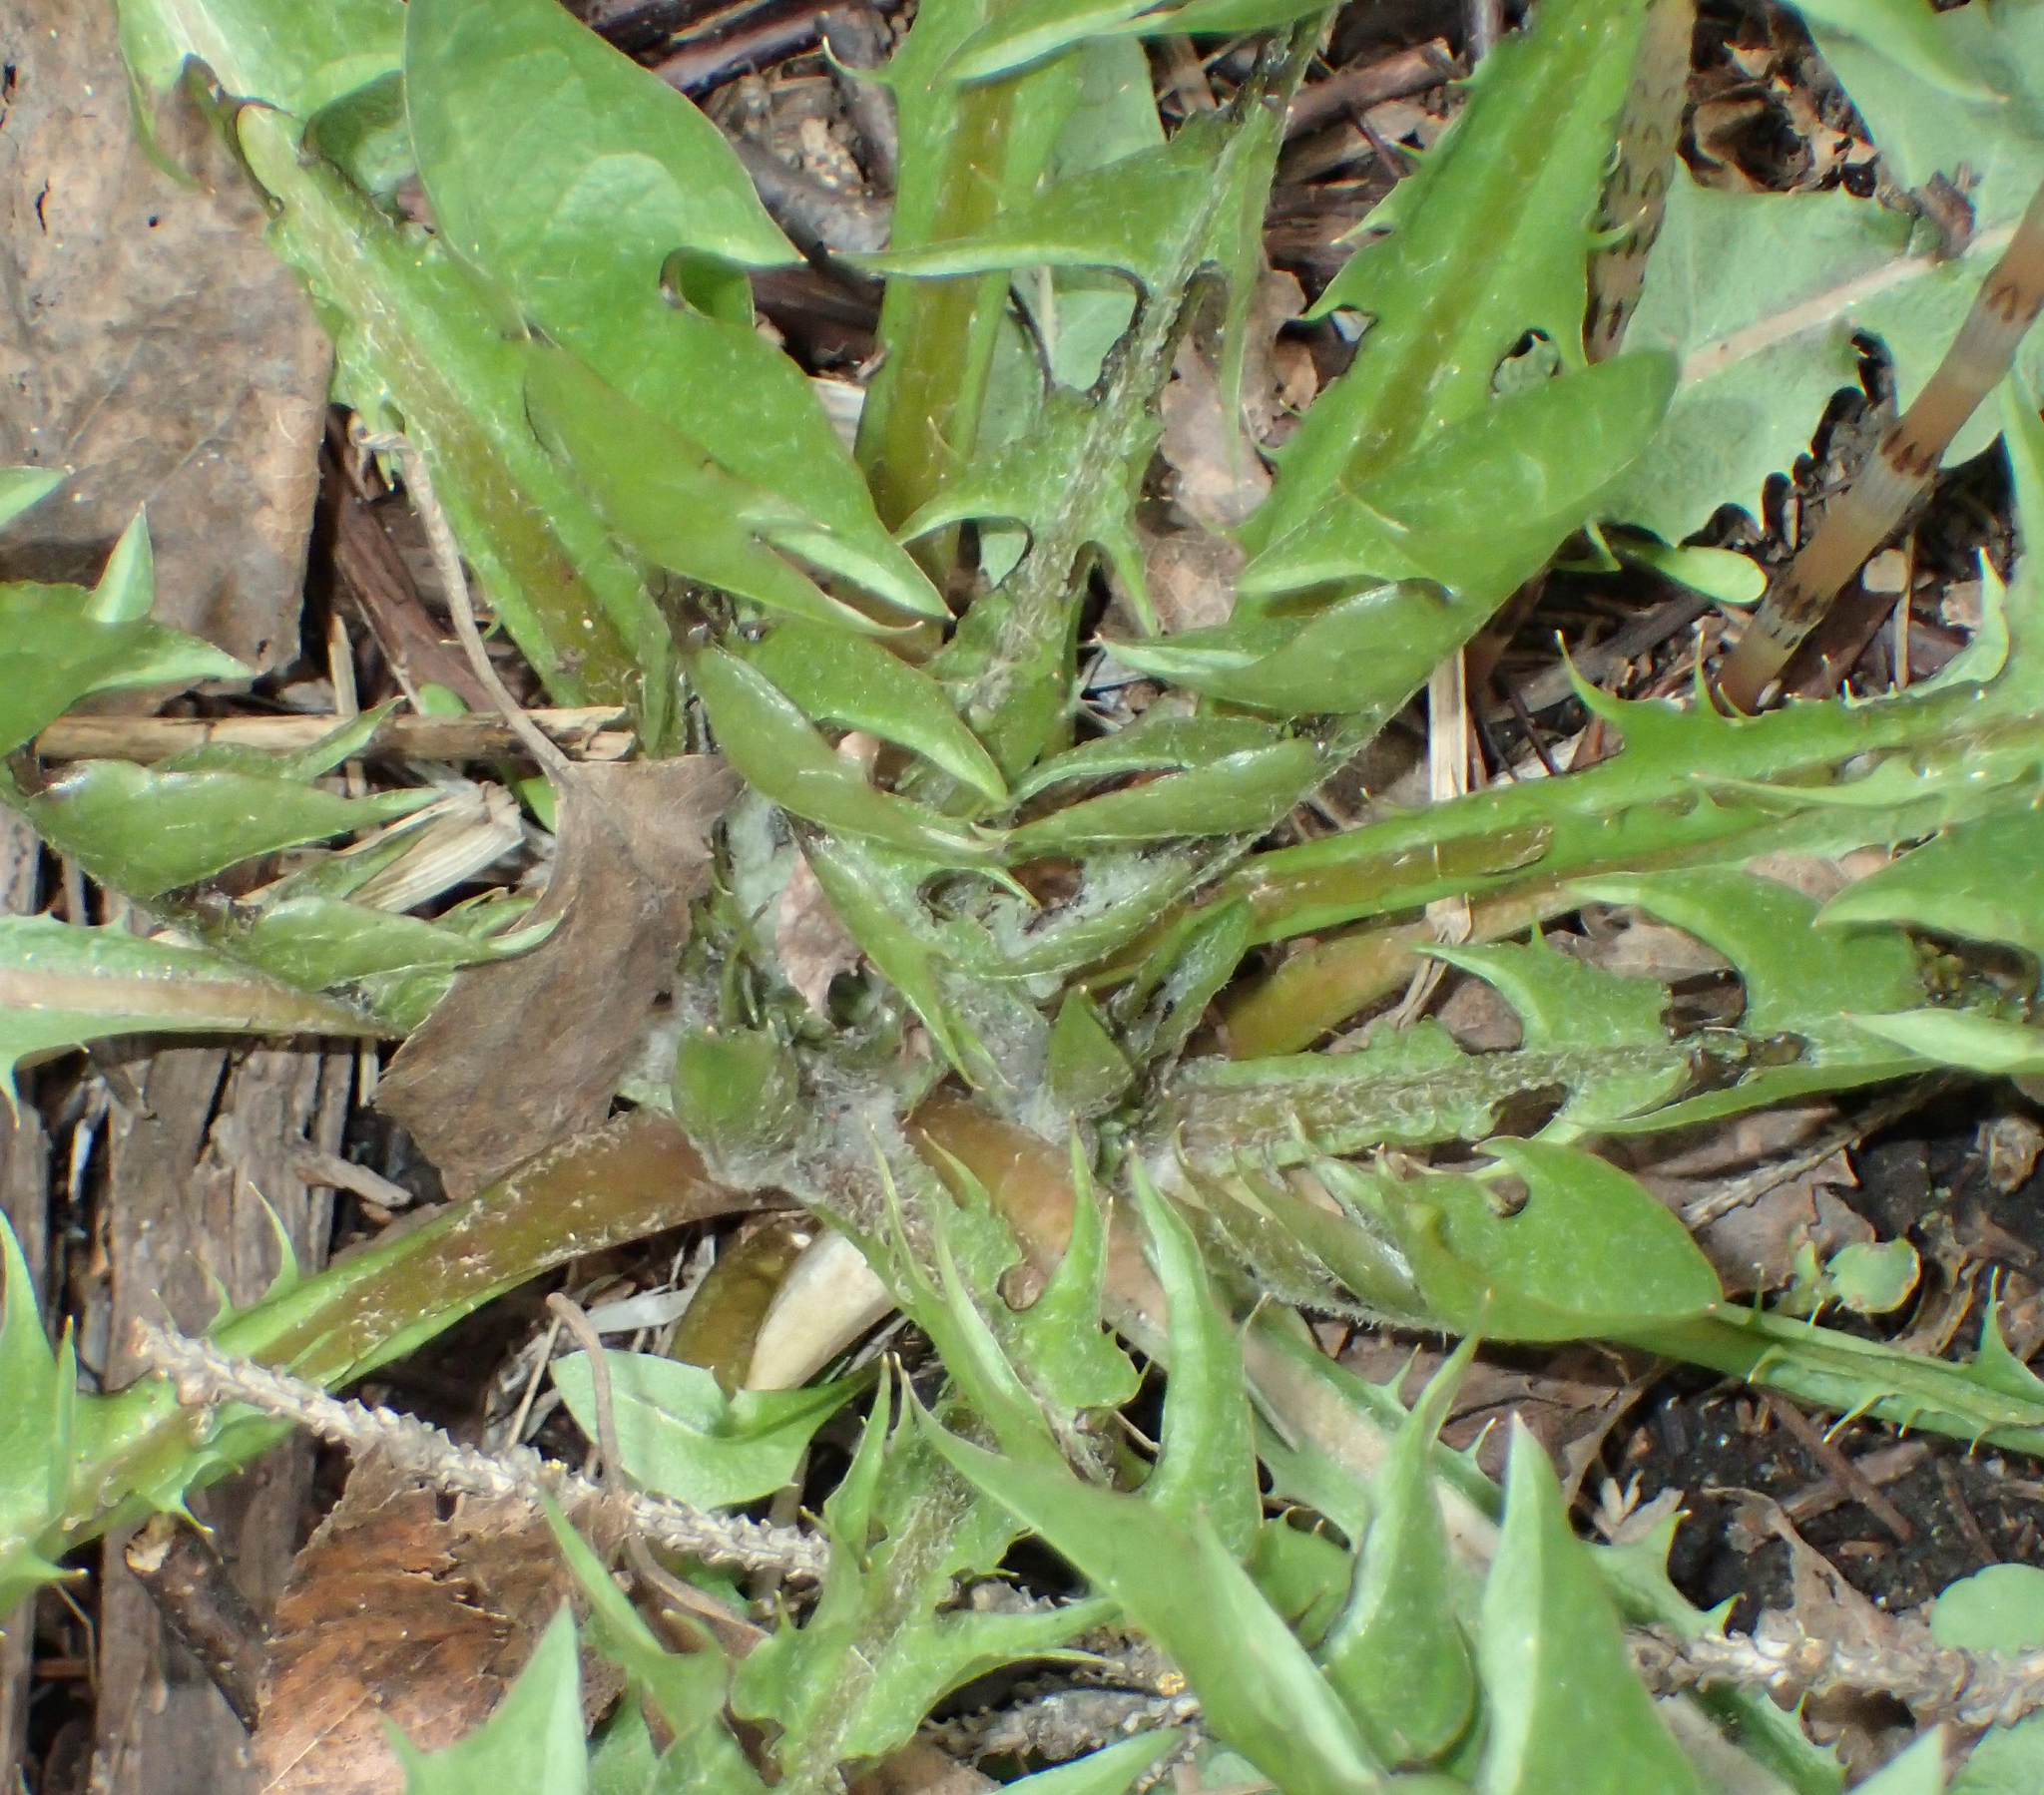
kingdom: Plantae
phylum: Tracheophyta
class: Magnoliopsida
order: Asterales
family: Asteraceae
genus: Taraxacum
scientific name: Taraxacum officinale
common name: Common dandelion
